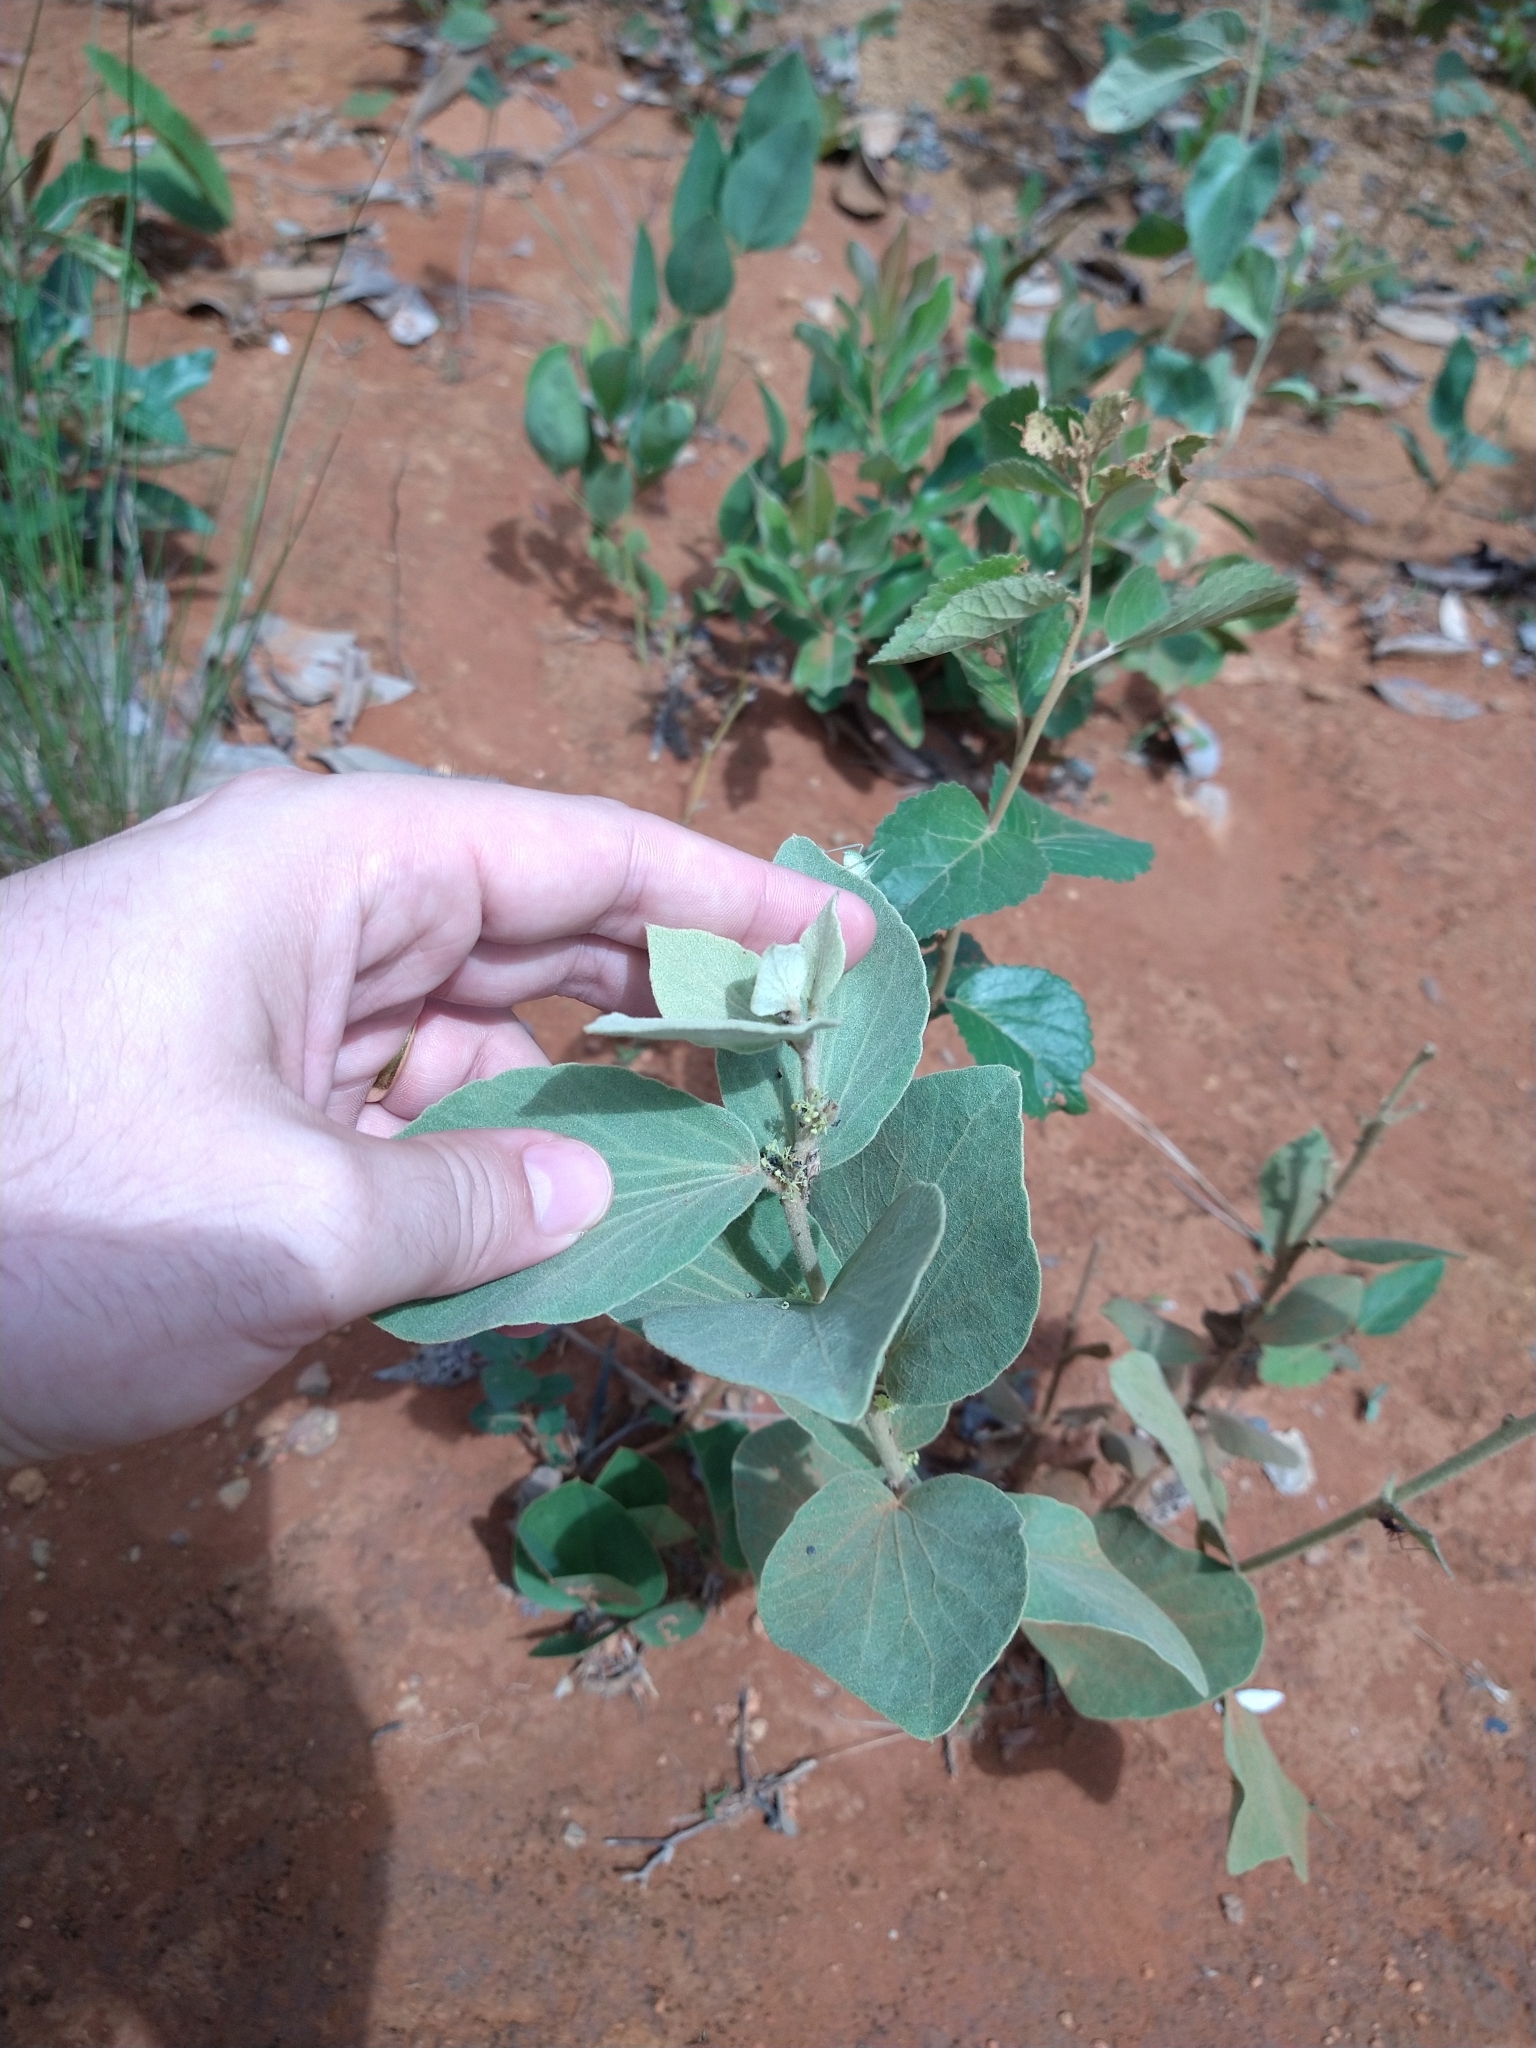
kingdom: Plantae
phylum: Tracheophyta
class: Magnoliopsida
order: Ranunculales
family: Menispermaceae
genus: Cissampelos
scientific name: Cissampelos ovalifolia
